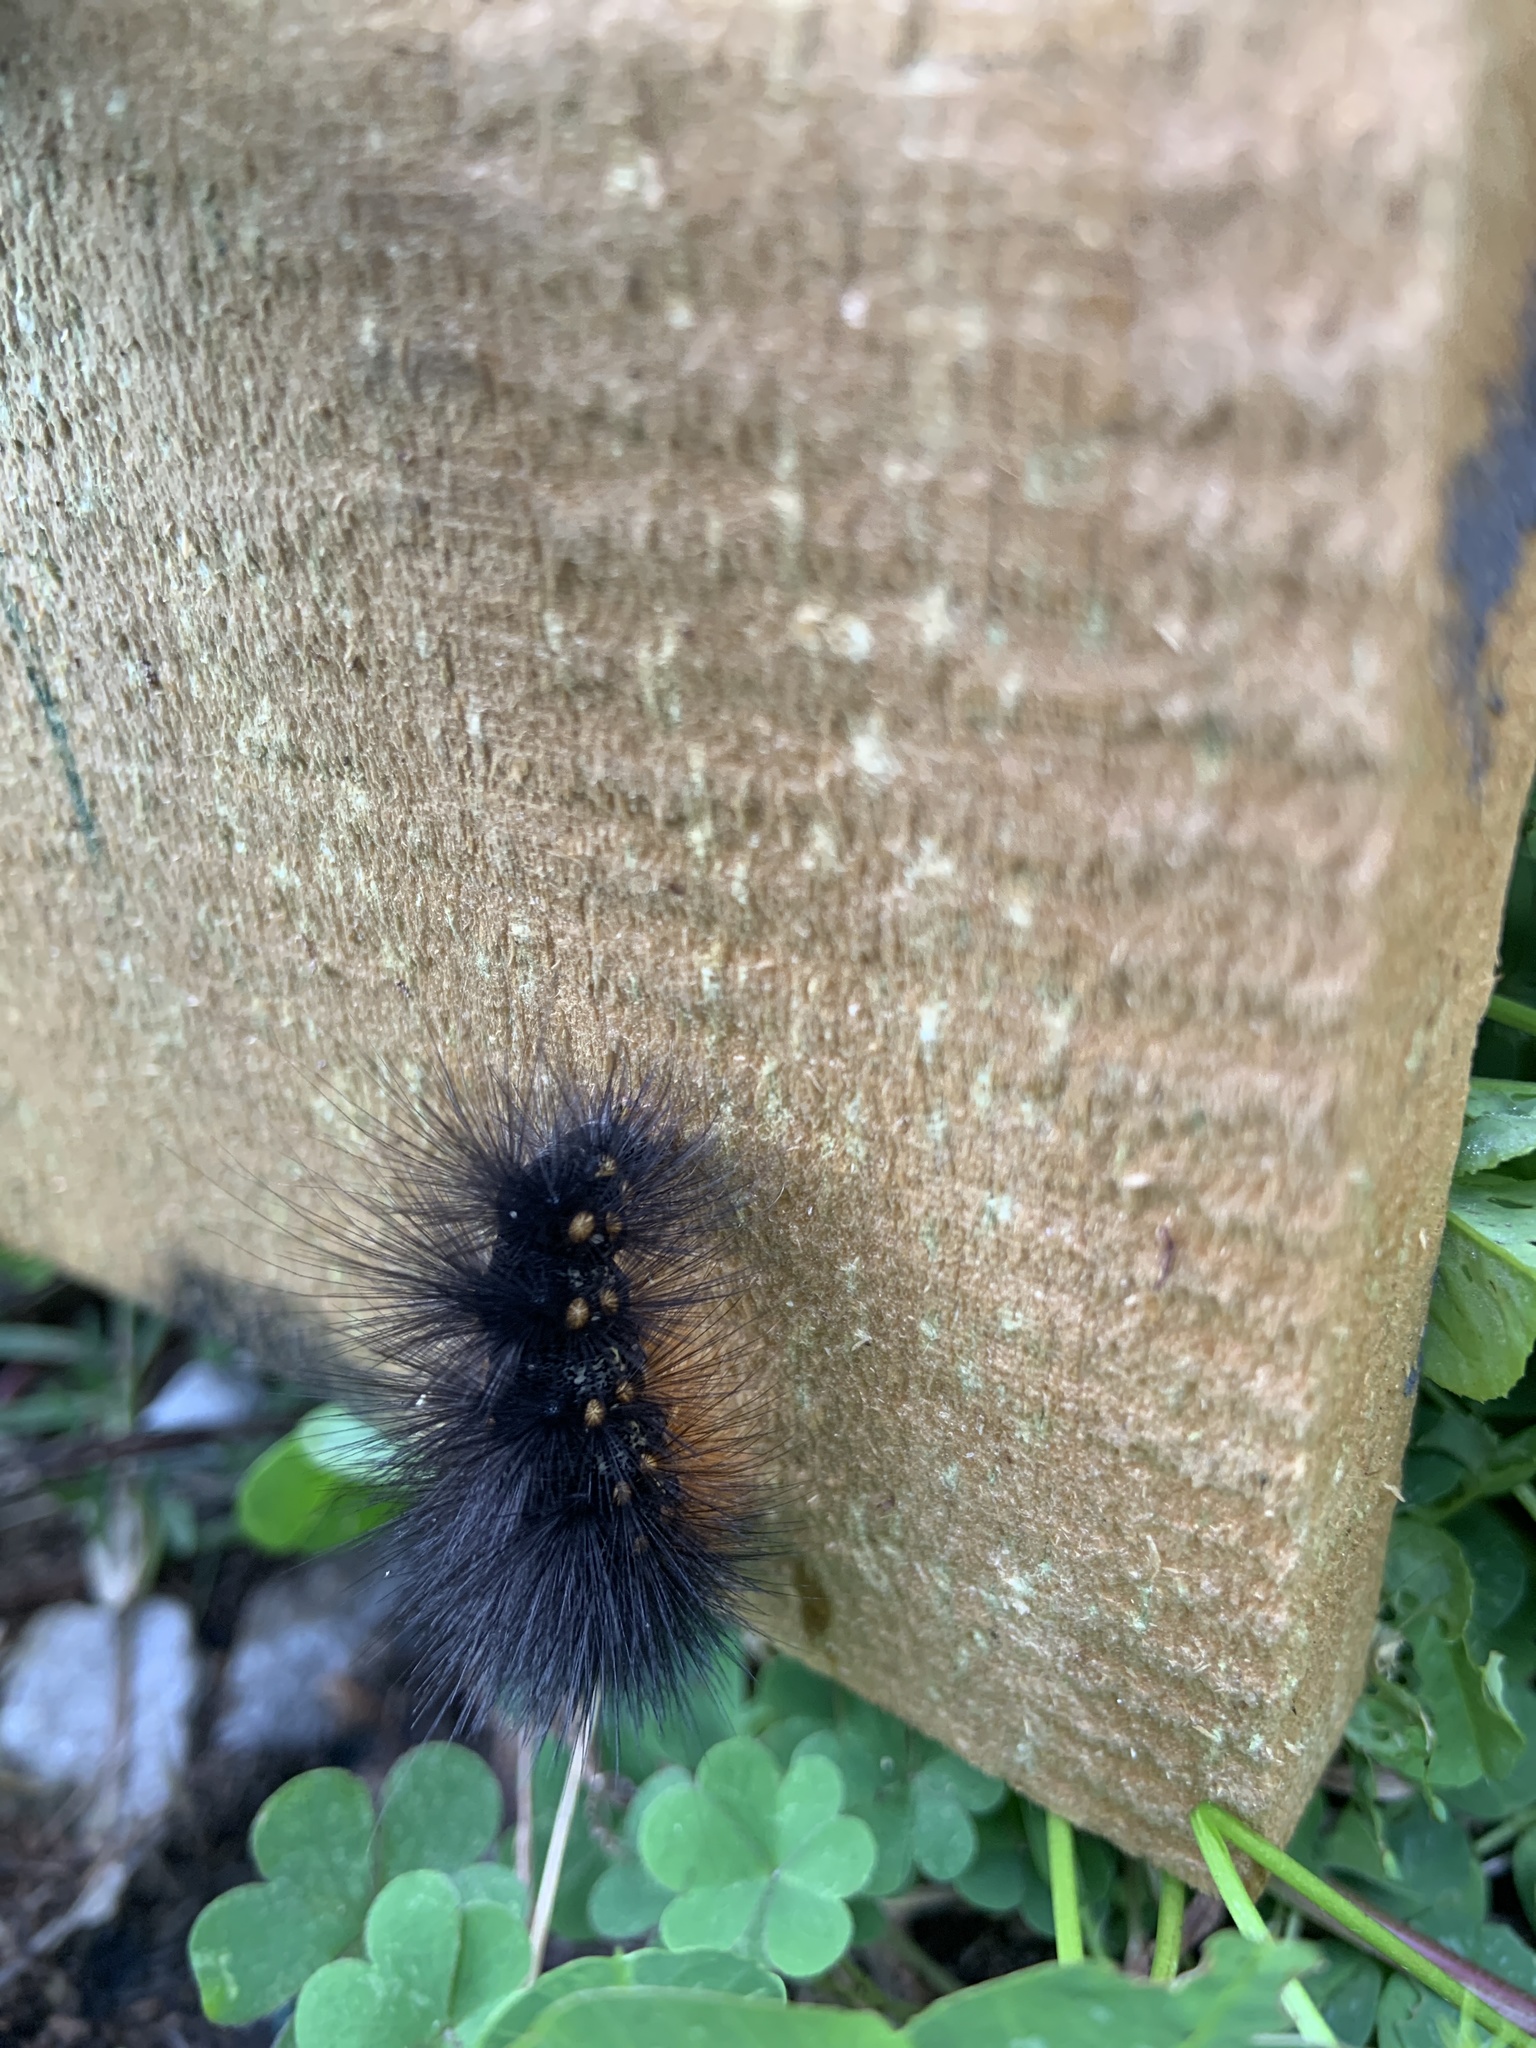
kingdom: Animalia
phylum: Arthropoda
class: Insecta
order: Lepidoptera
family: Erebidae
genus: Estigmene
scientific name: Estigmene acrea
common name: Salt marsh moth
